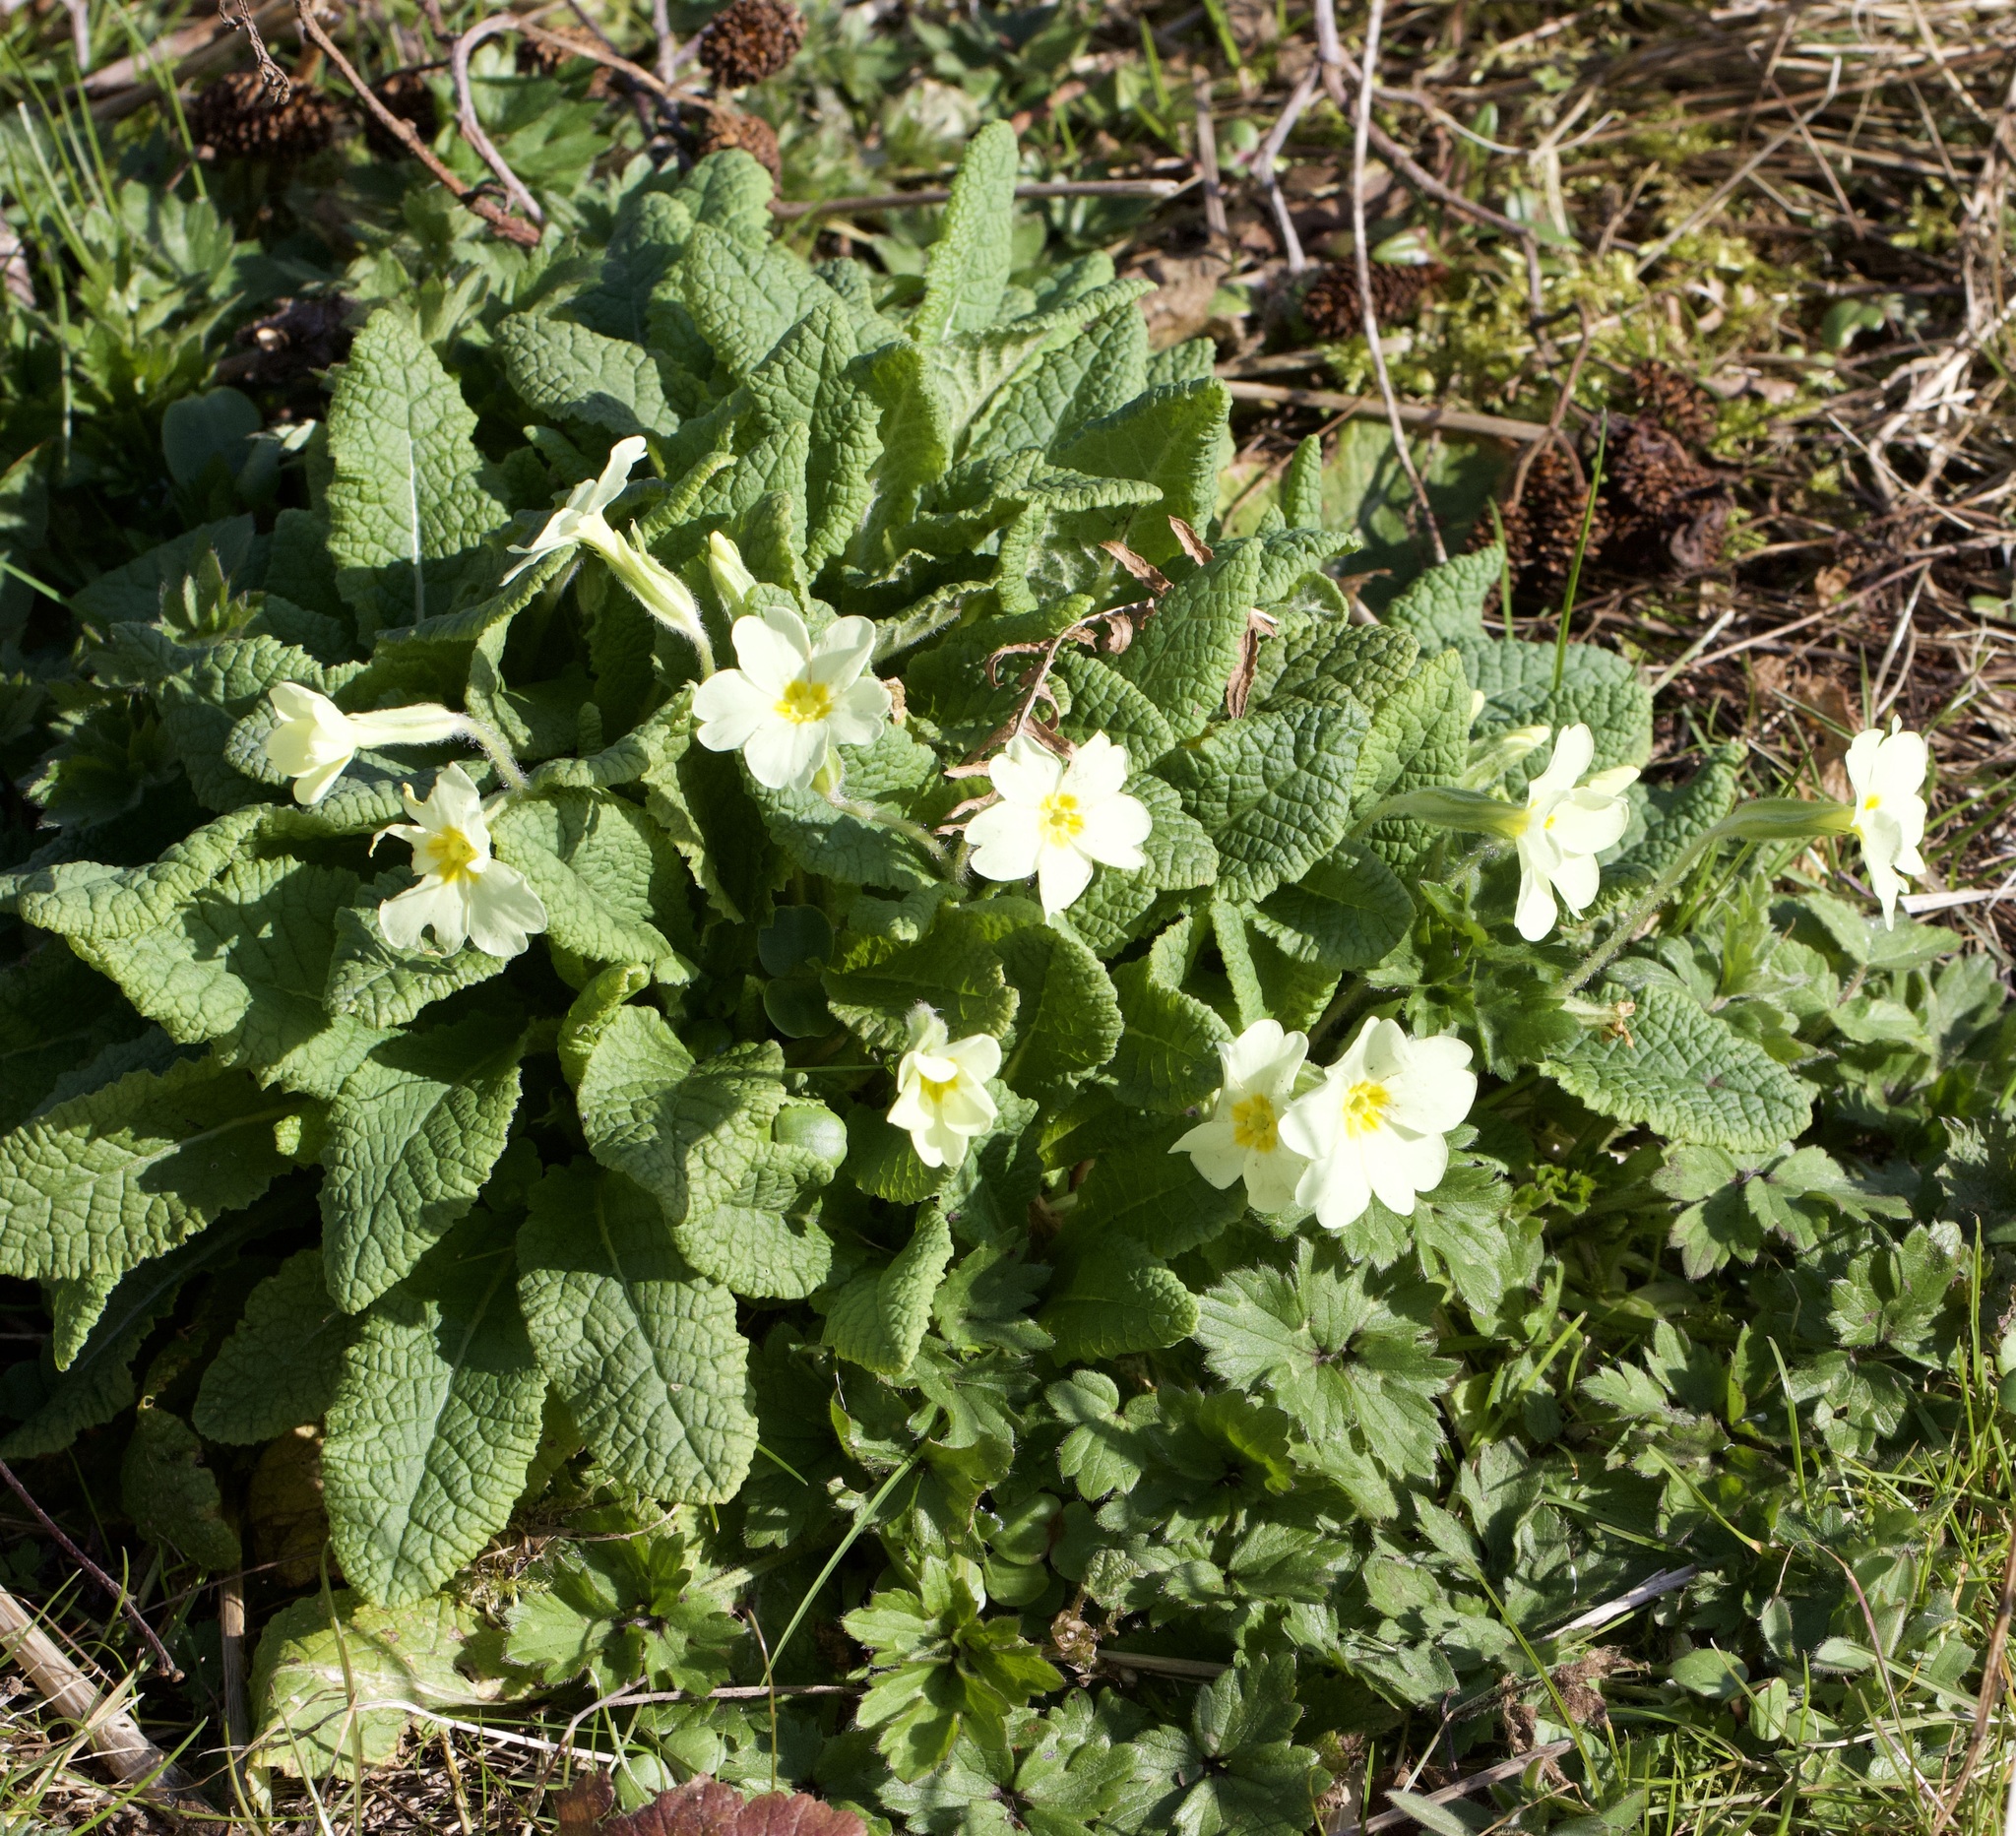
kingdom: Plantae
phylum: Tracheophyta
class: Magnoliopsida
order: Ericales
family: Primulaceae
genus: Primula
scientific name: Primula vulgaris
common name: Primrose
